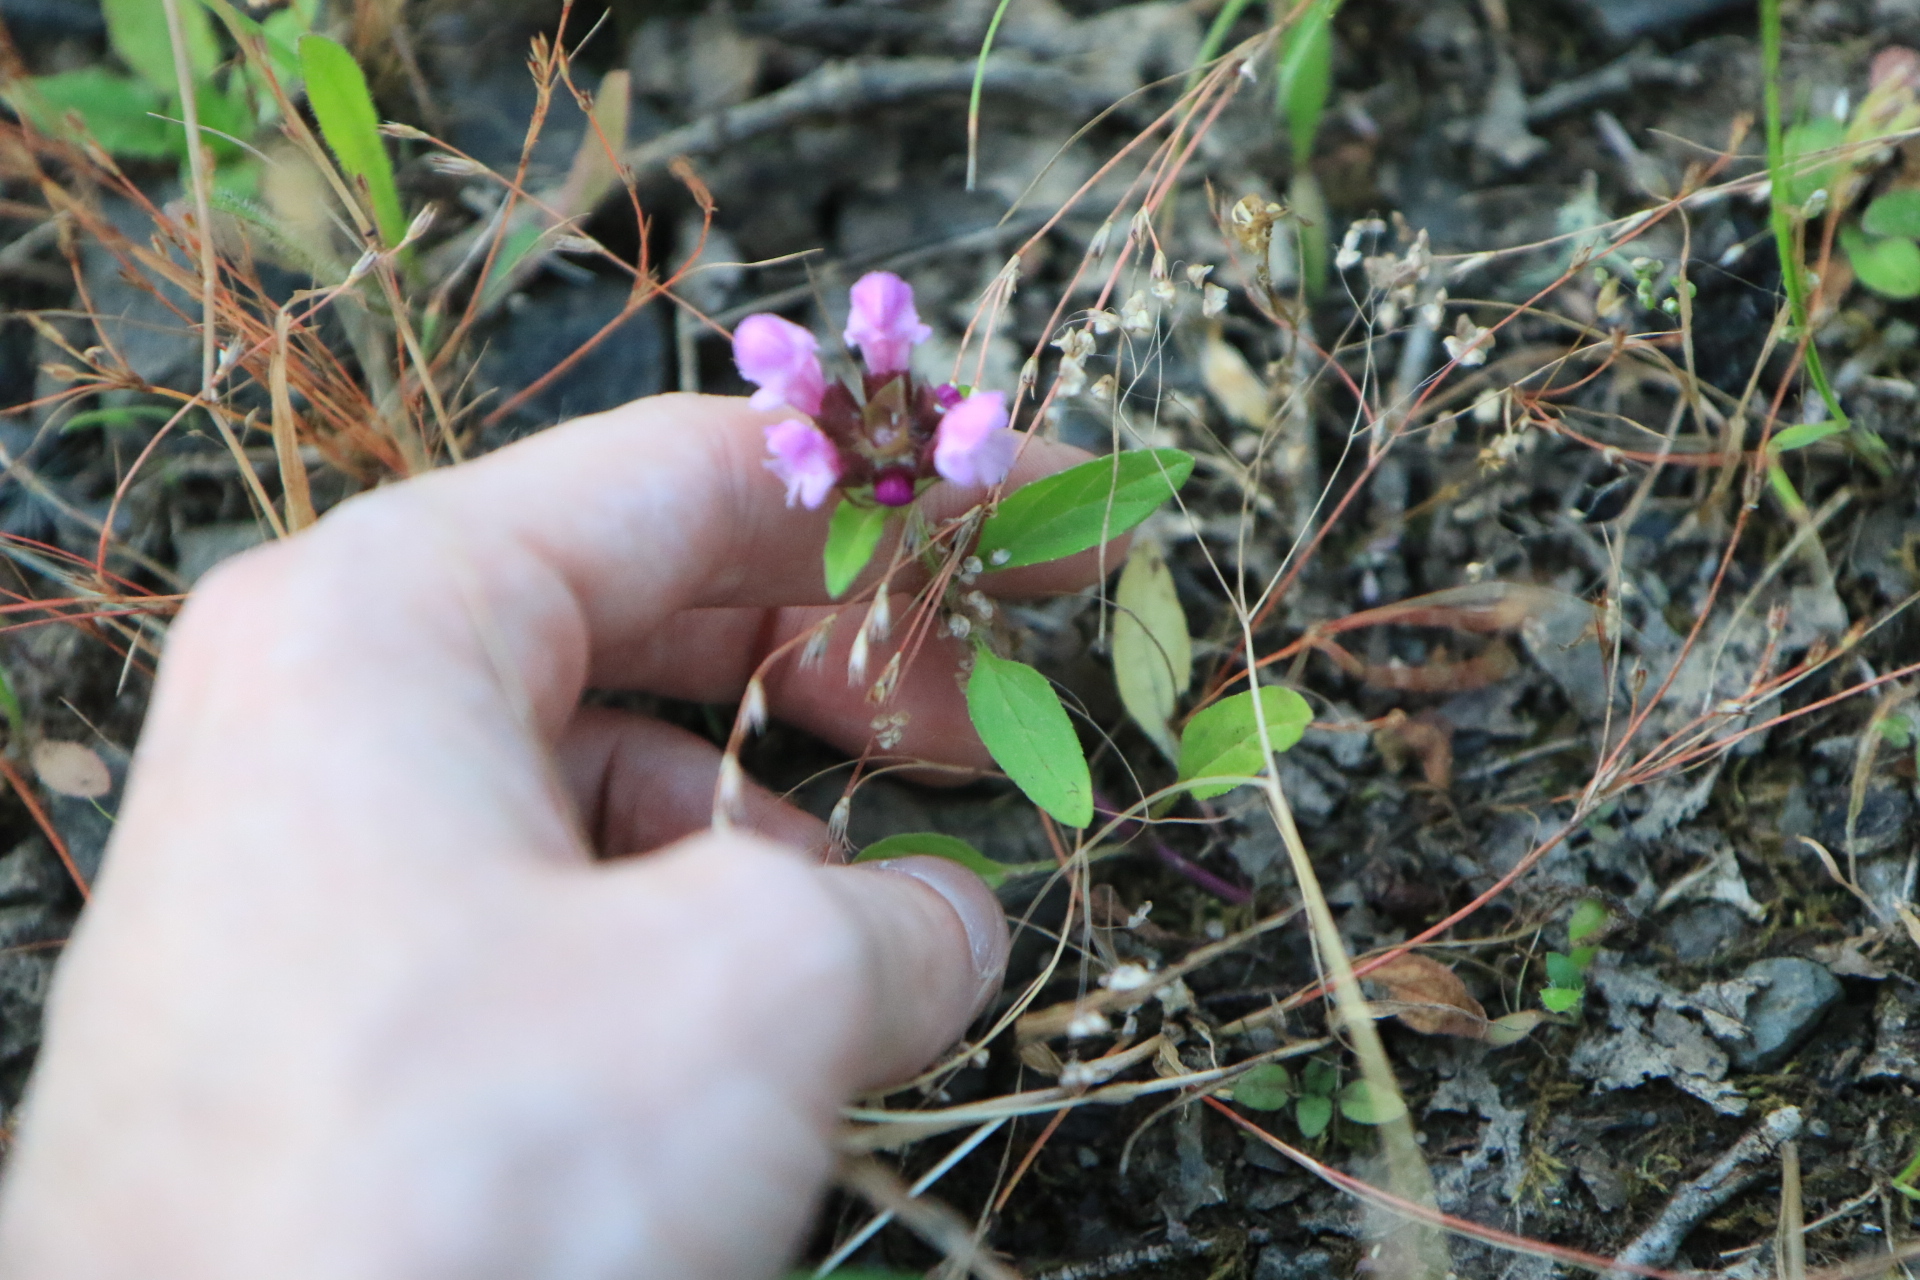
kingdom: Plantae
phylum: Tracheophyta
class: Magnoliopsida
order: Lamiales
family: Lamiaceae
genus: Prunella
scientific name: Prunella vulgaris
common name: Heal-all
